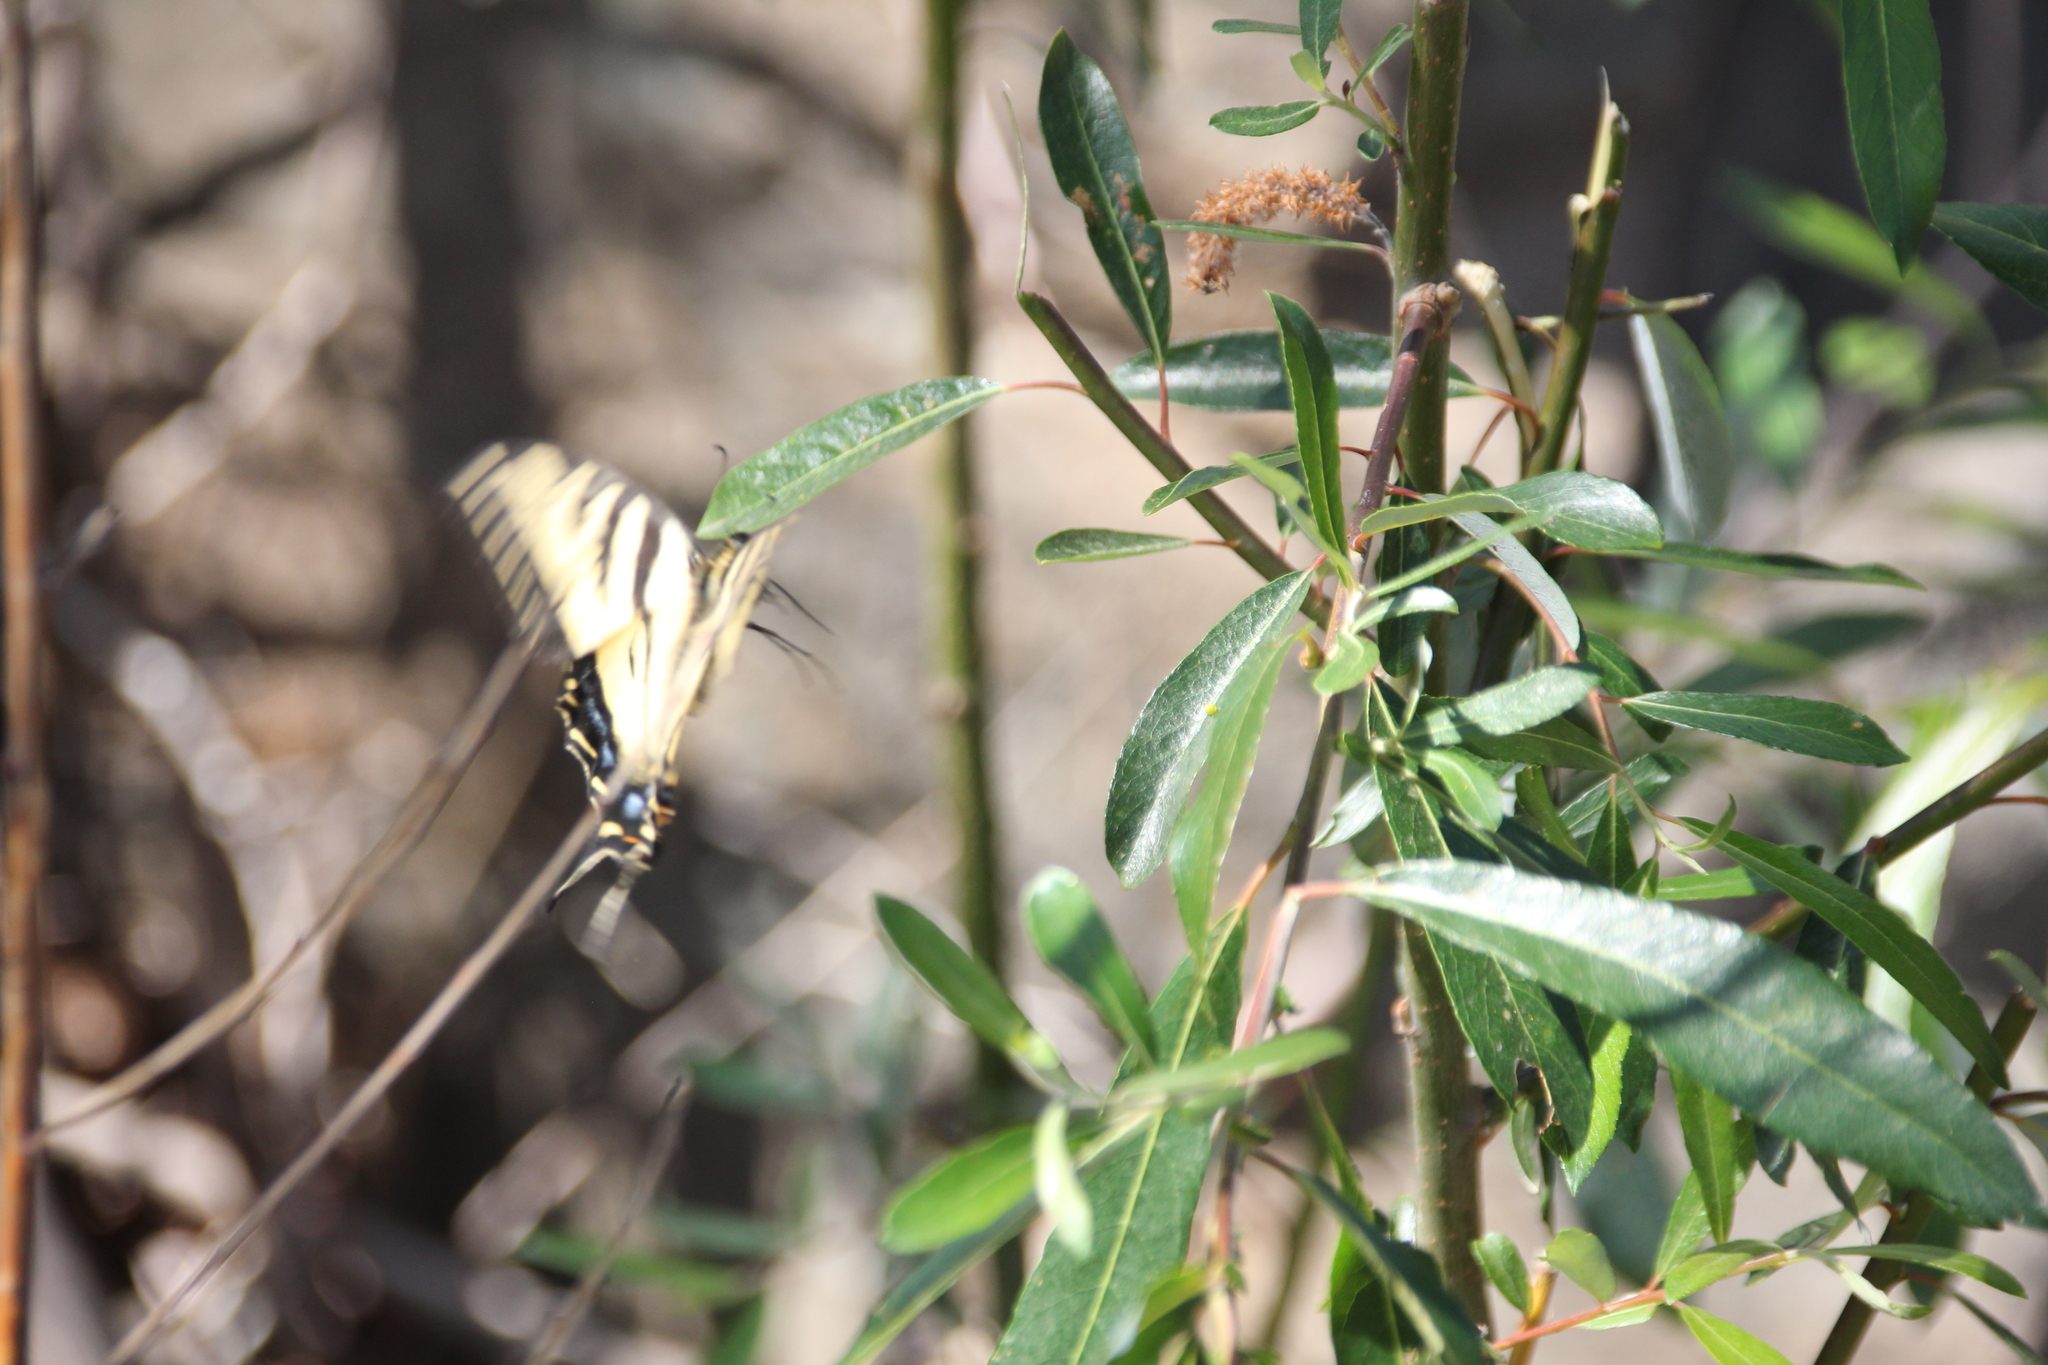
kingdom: Animalia
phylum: Arthropoda
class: Insecta
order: Lepidoptera
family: Papilionidae
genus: Papilio
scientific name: Papilio rutulus
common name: Western tiger swallowtail
